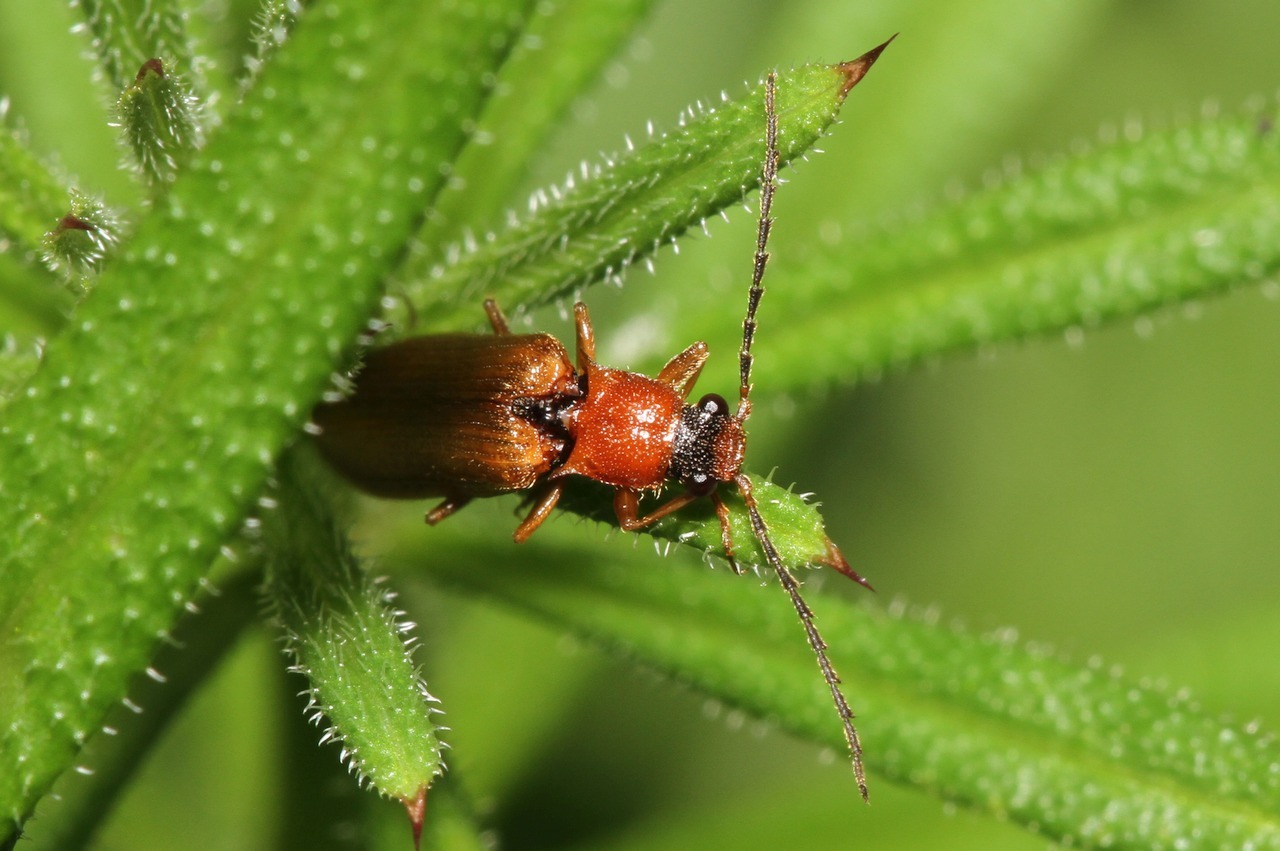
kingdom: Animalia
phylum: Arthropoda
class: Insecta
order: Coleoptera
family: Elateridae
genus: Denticollis
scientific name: Denticollis linearis
